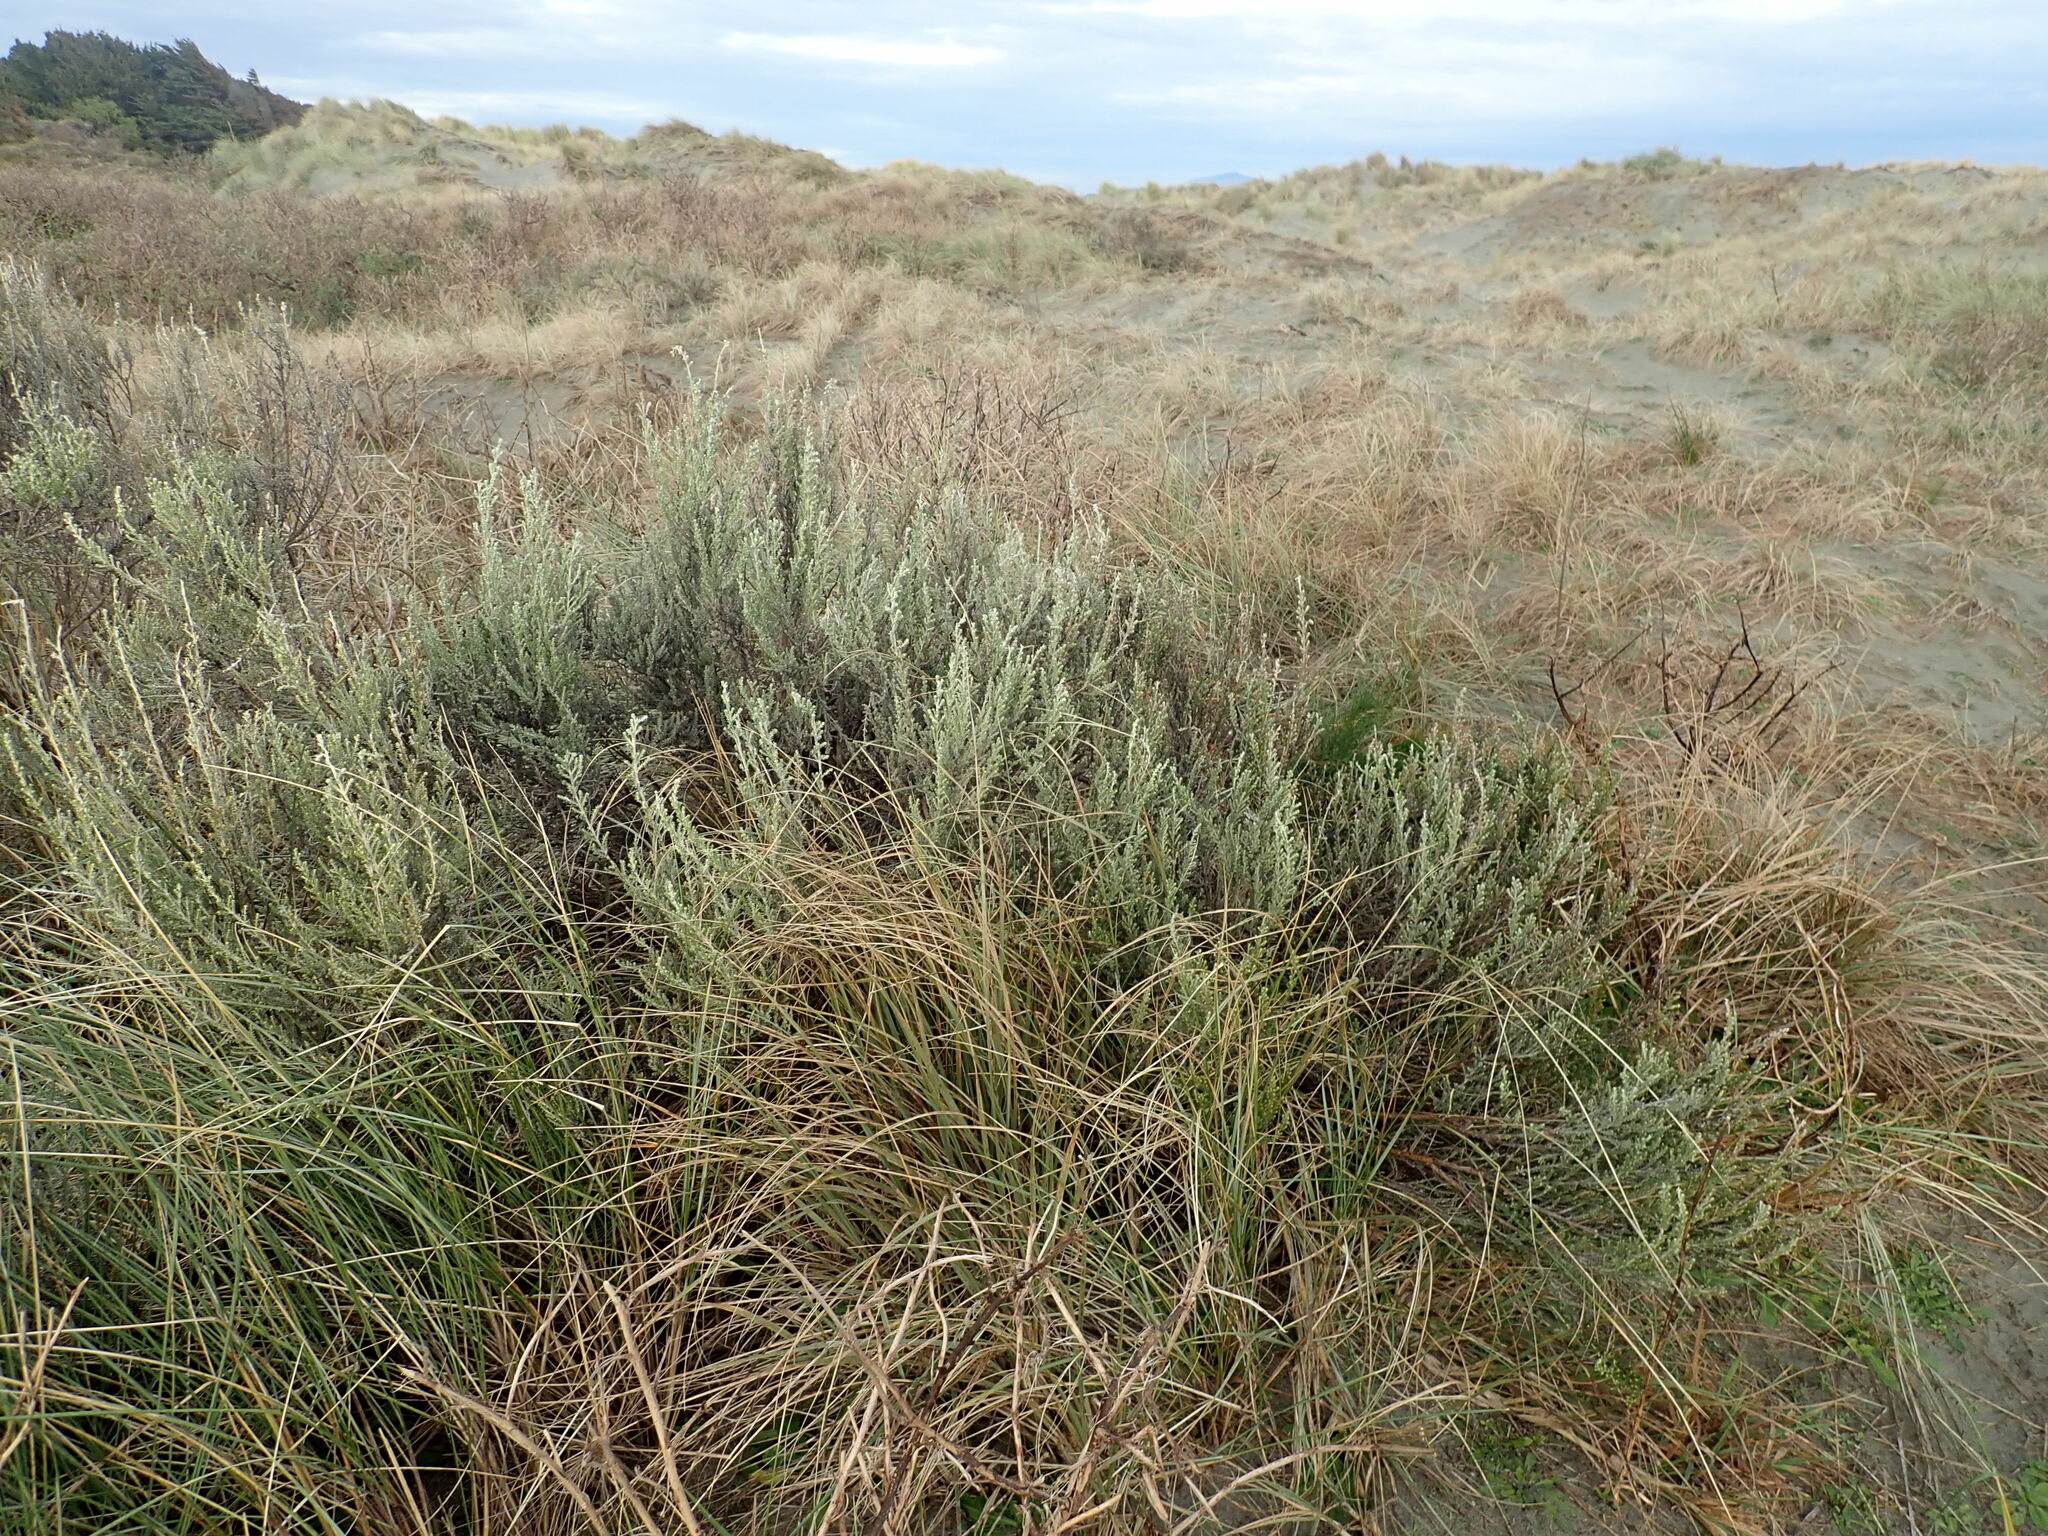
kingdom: Plantae
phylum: Tracheophyta
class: Magnoliopsida
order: Asterales
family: Asteraceae
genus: Ozothamnus
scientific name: Ozothamnus leptophyllus
